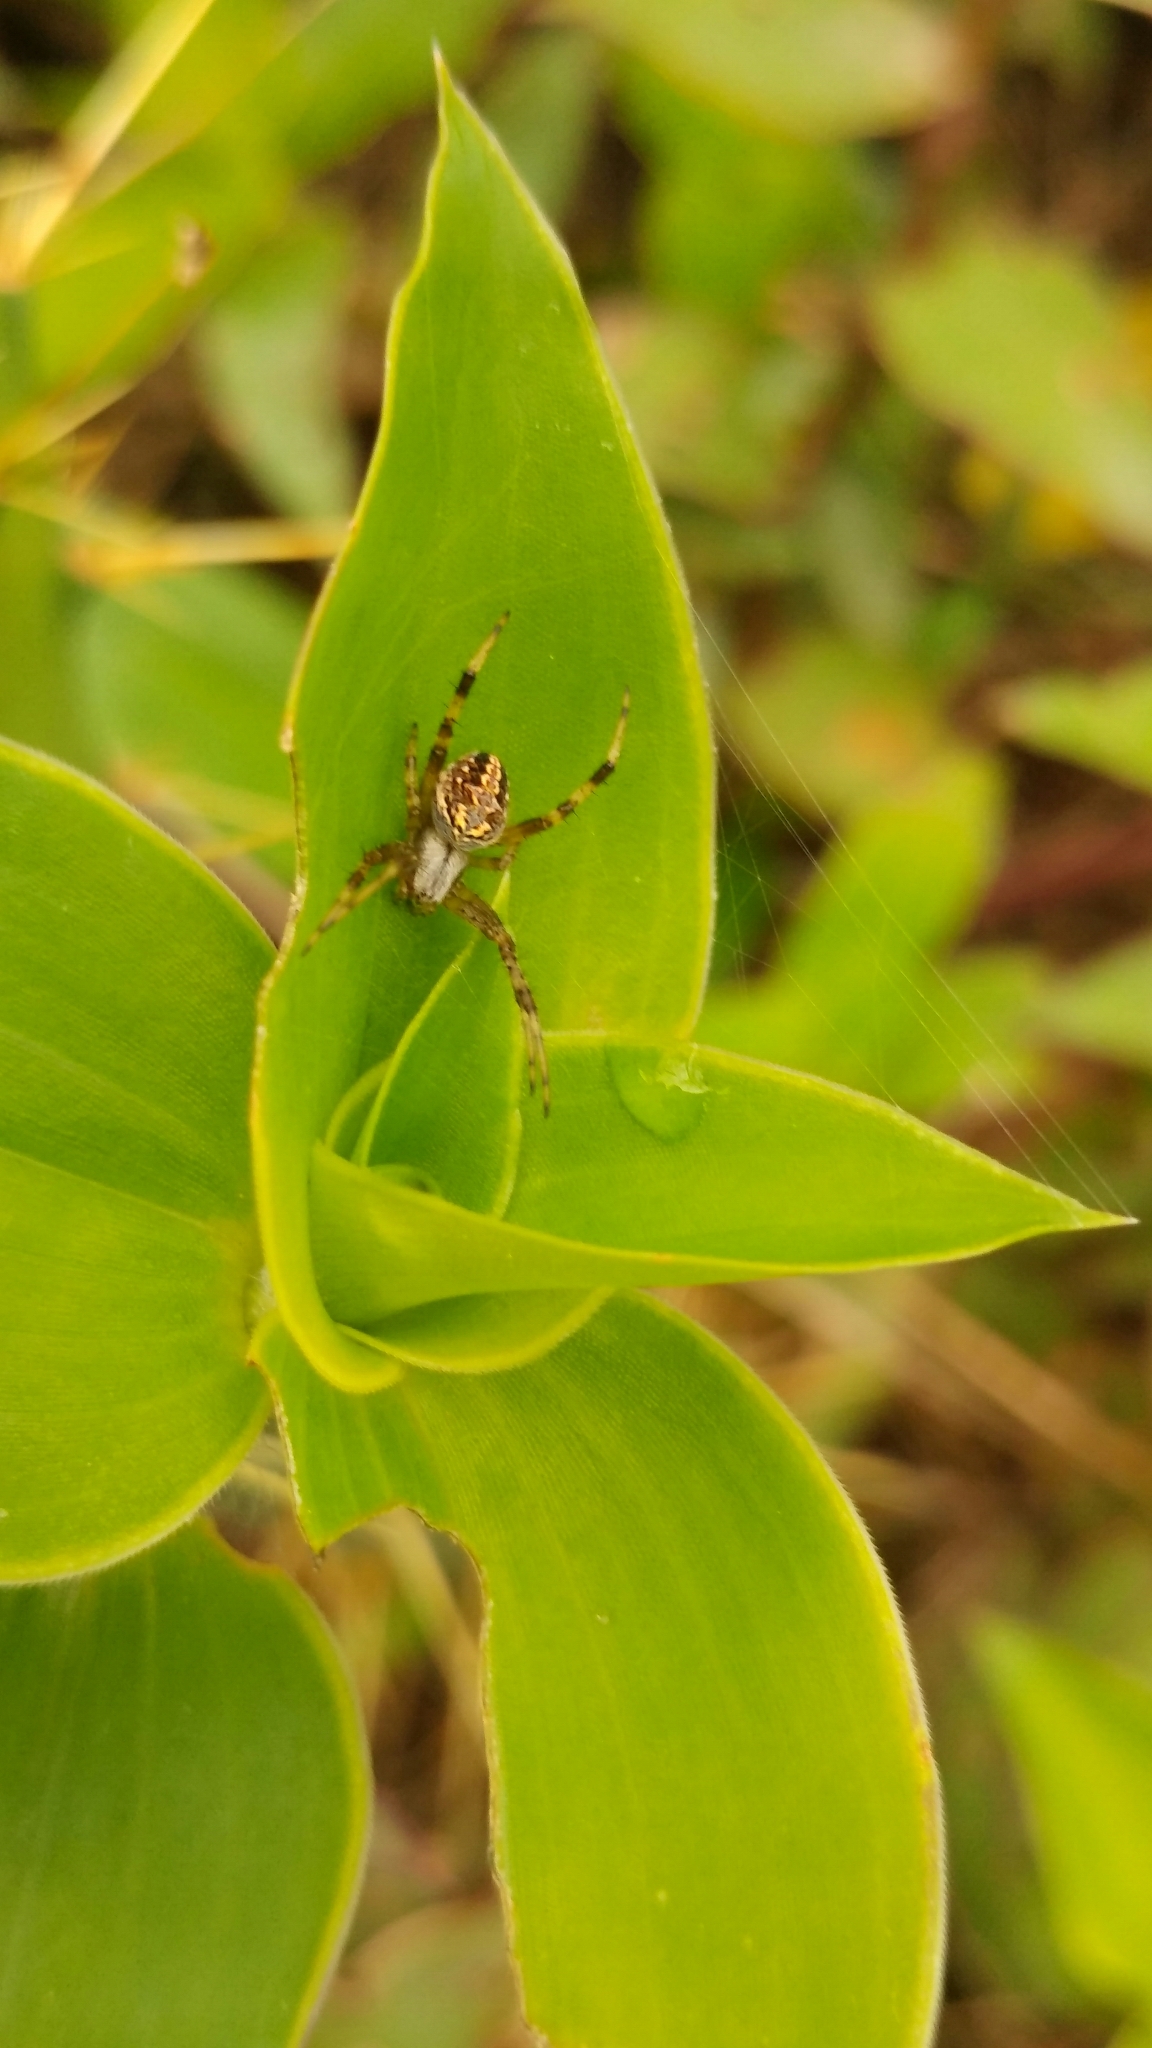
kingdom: Animalia
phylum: Arthropoda
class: Arachnida
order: Araneae
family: Araneidae
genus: Neoscona
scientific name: Neoscona oaxacensis
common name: Orb weavers
